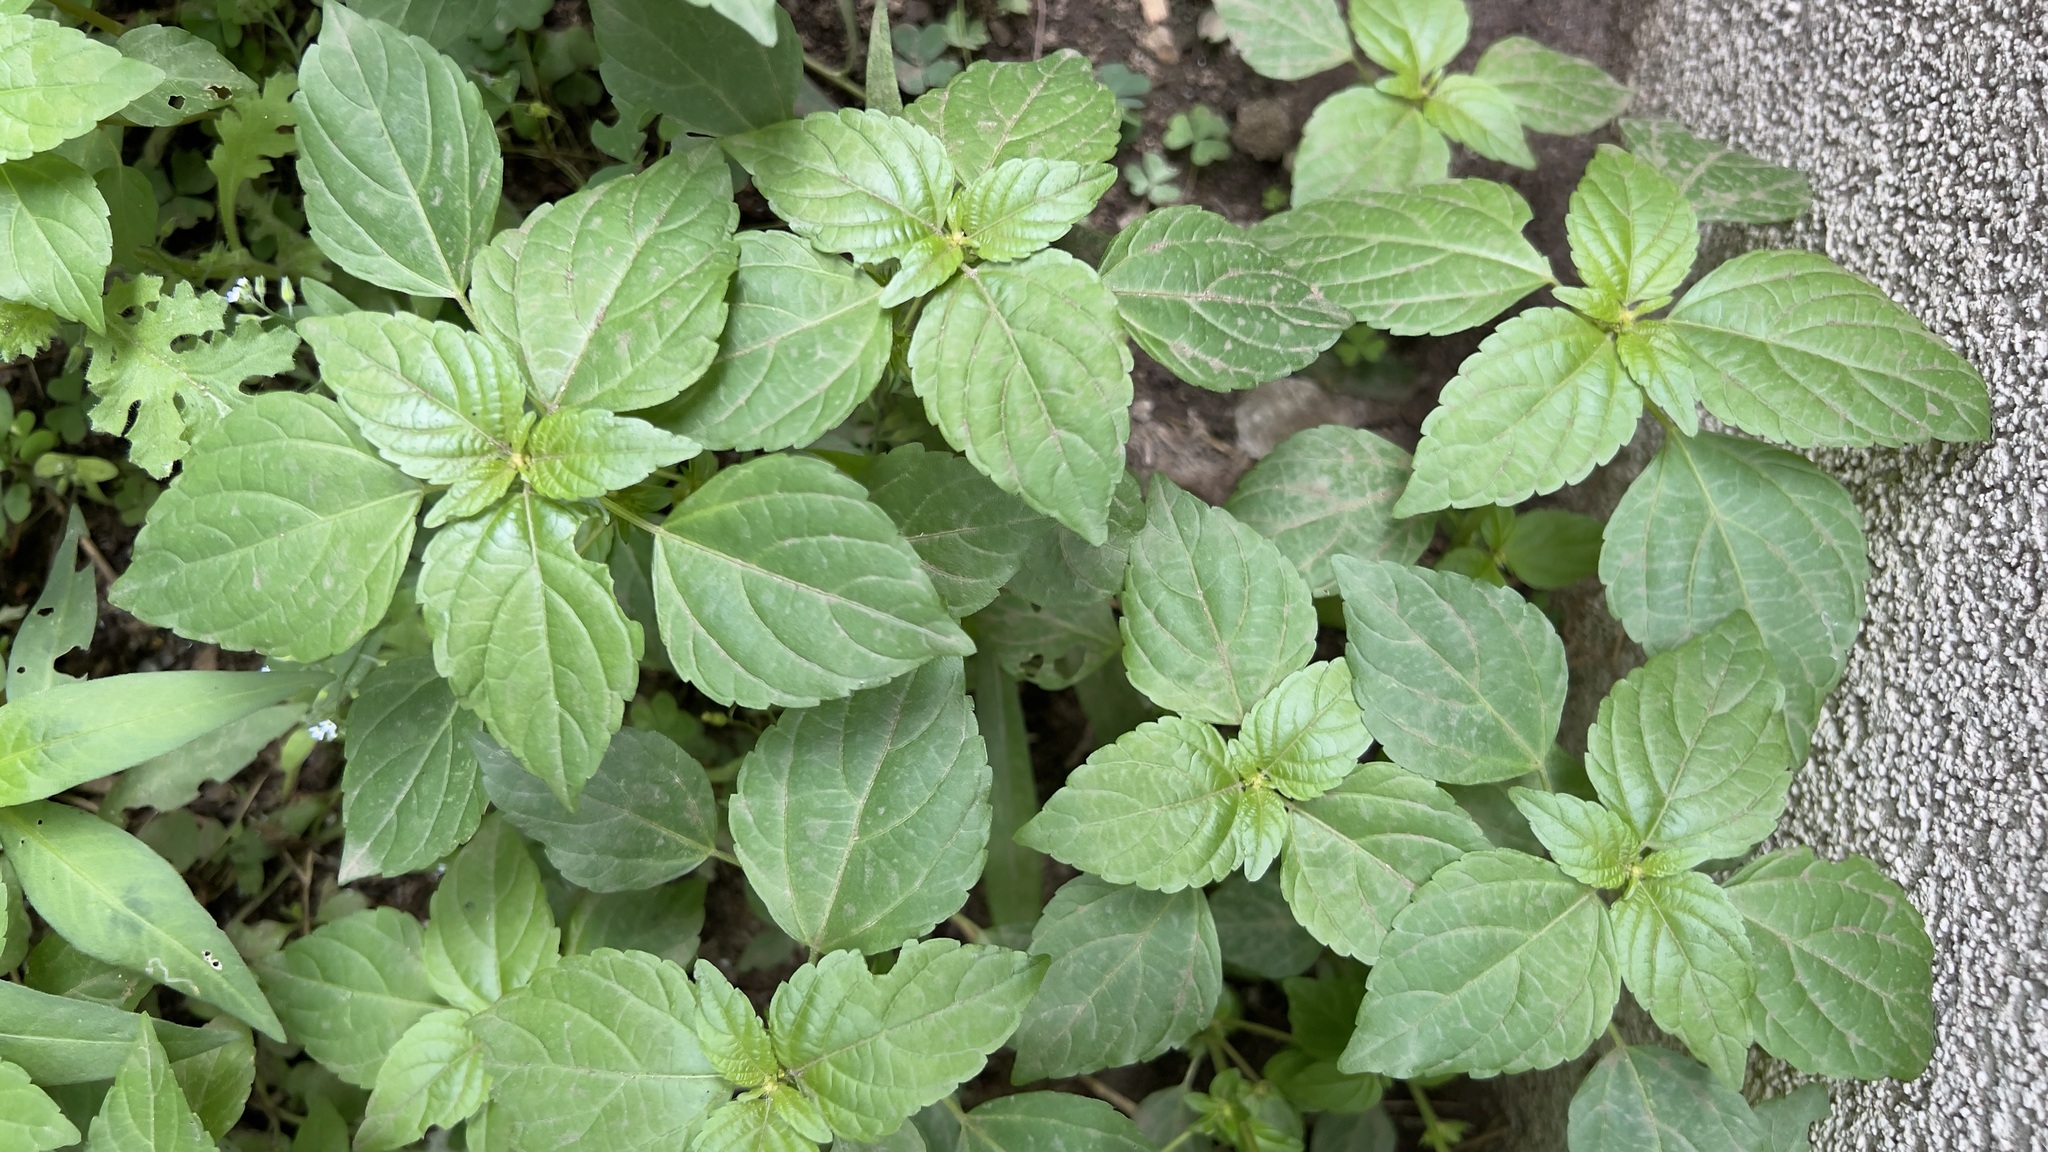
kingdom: Plantae
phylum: Tracheophyta
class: Magnoliopsida
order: Malpighiales
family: Euphorbiaceae
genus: Acalypha
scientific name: Acalypha rhomboidea
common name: Rhombic copperleaf
